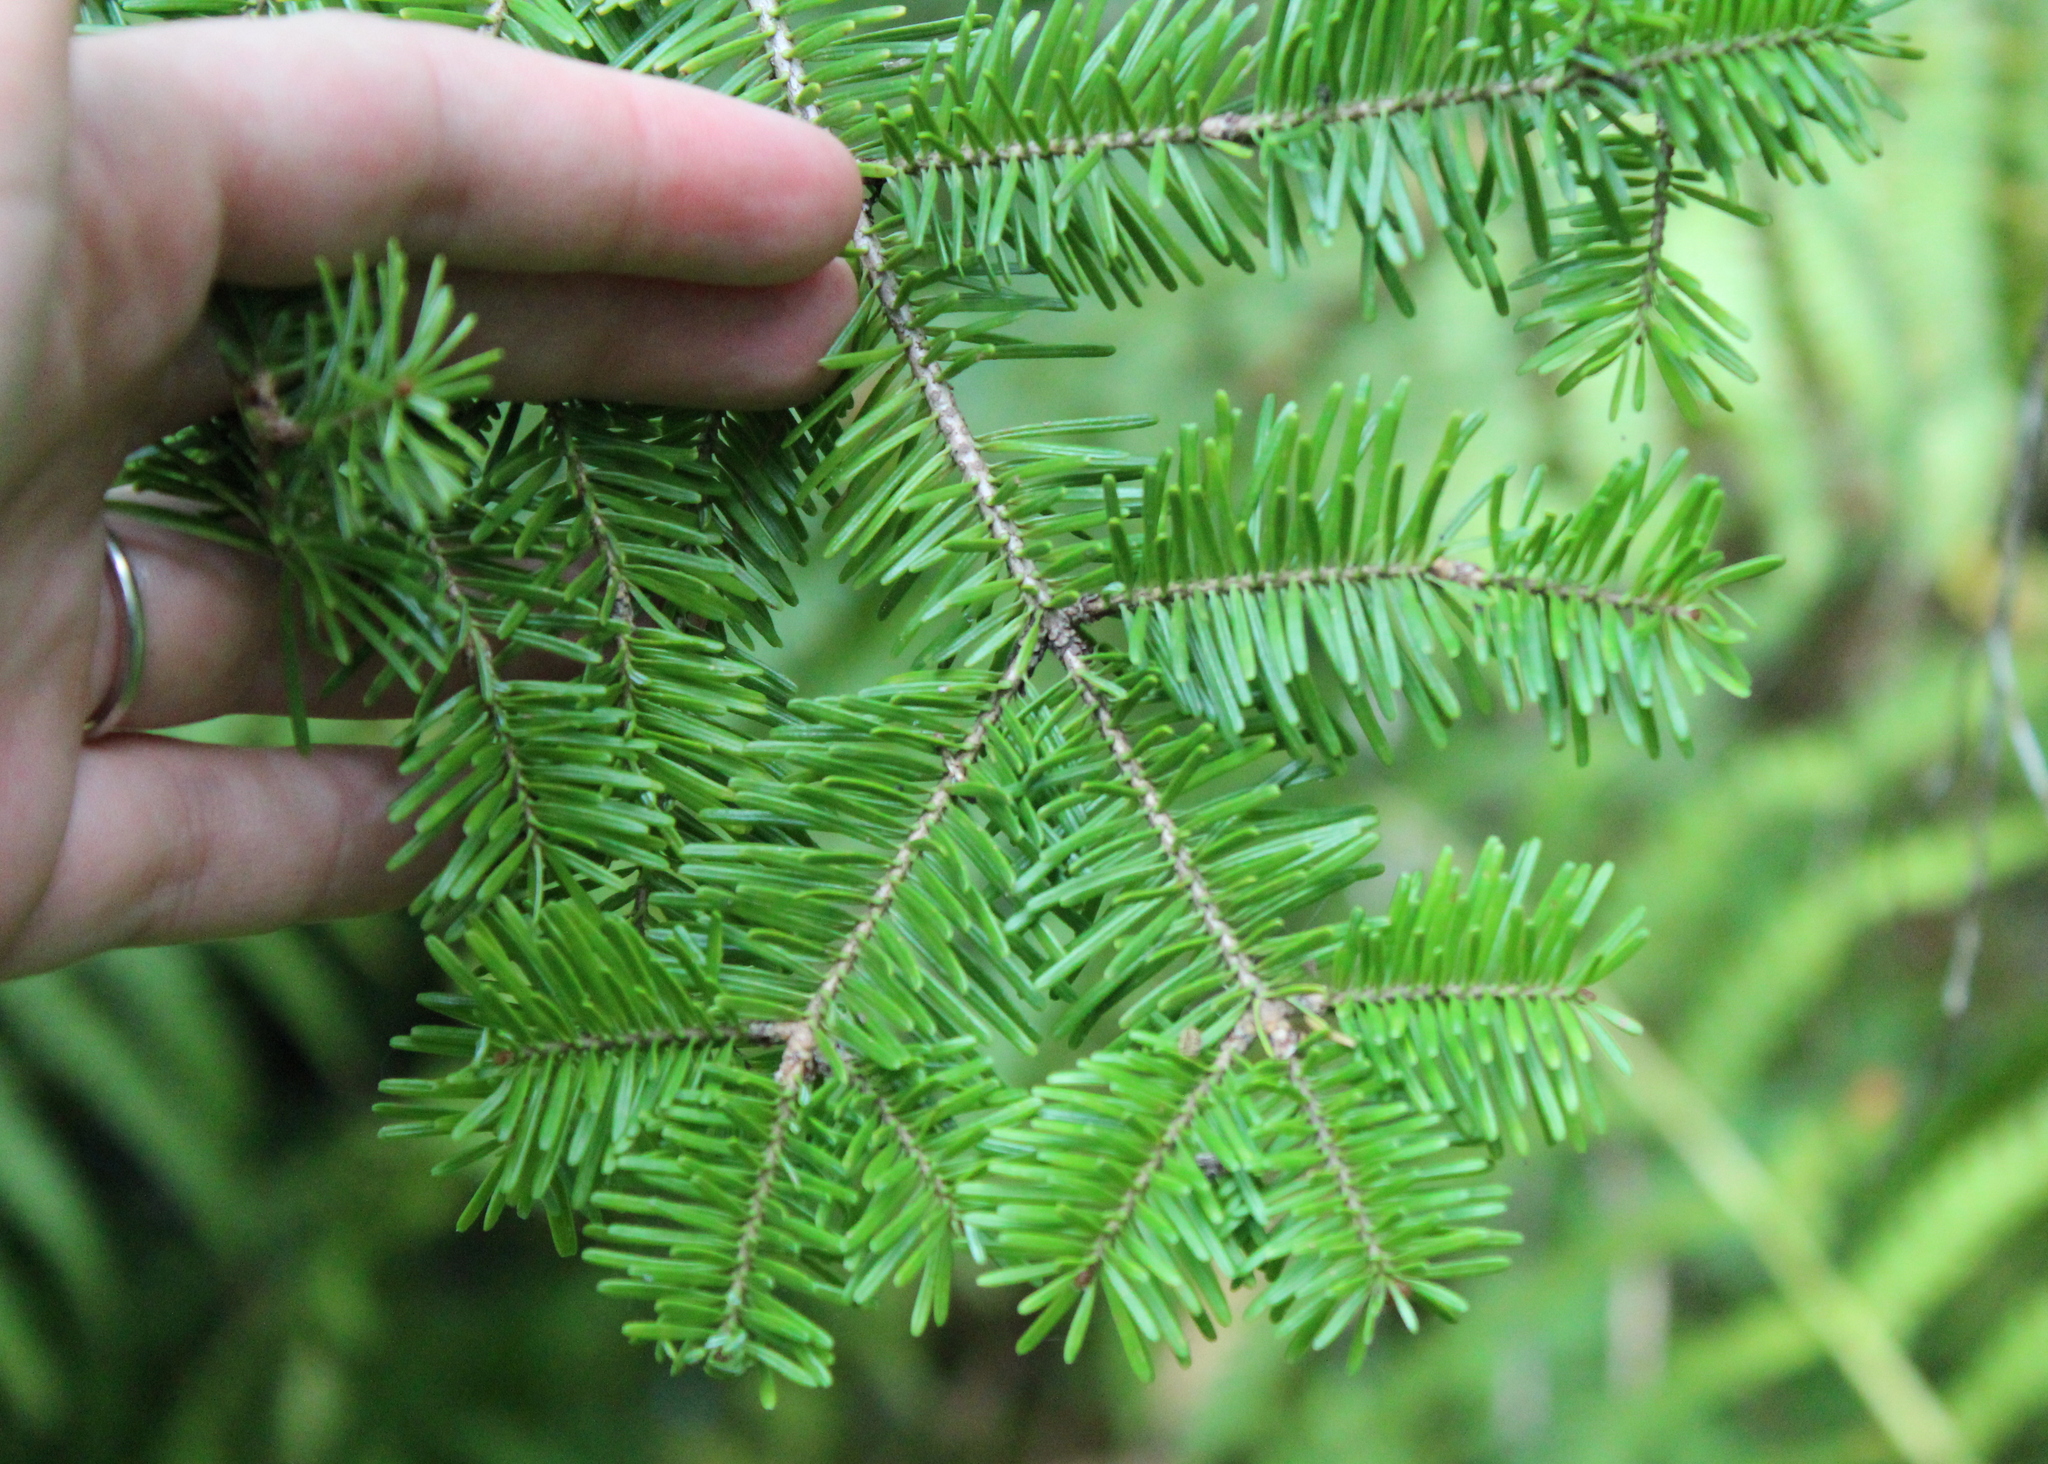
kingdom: Plantae
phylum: Tracheophyta
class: Pinopsida
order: Pinales
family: Pinaceae
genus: Abies
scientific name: Abies balsamea
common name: Balsam fir
